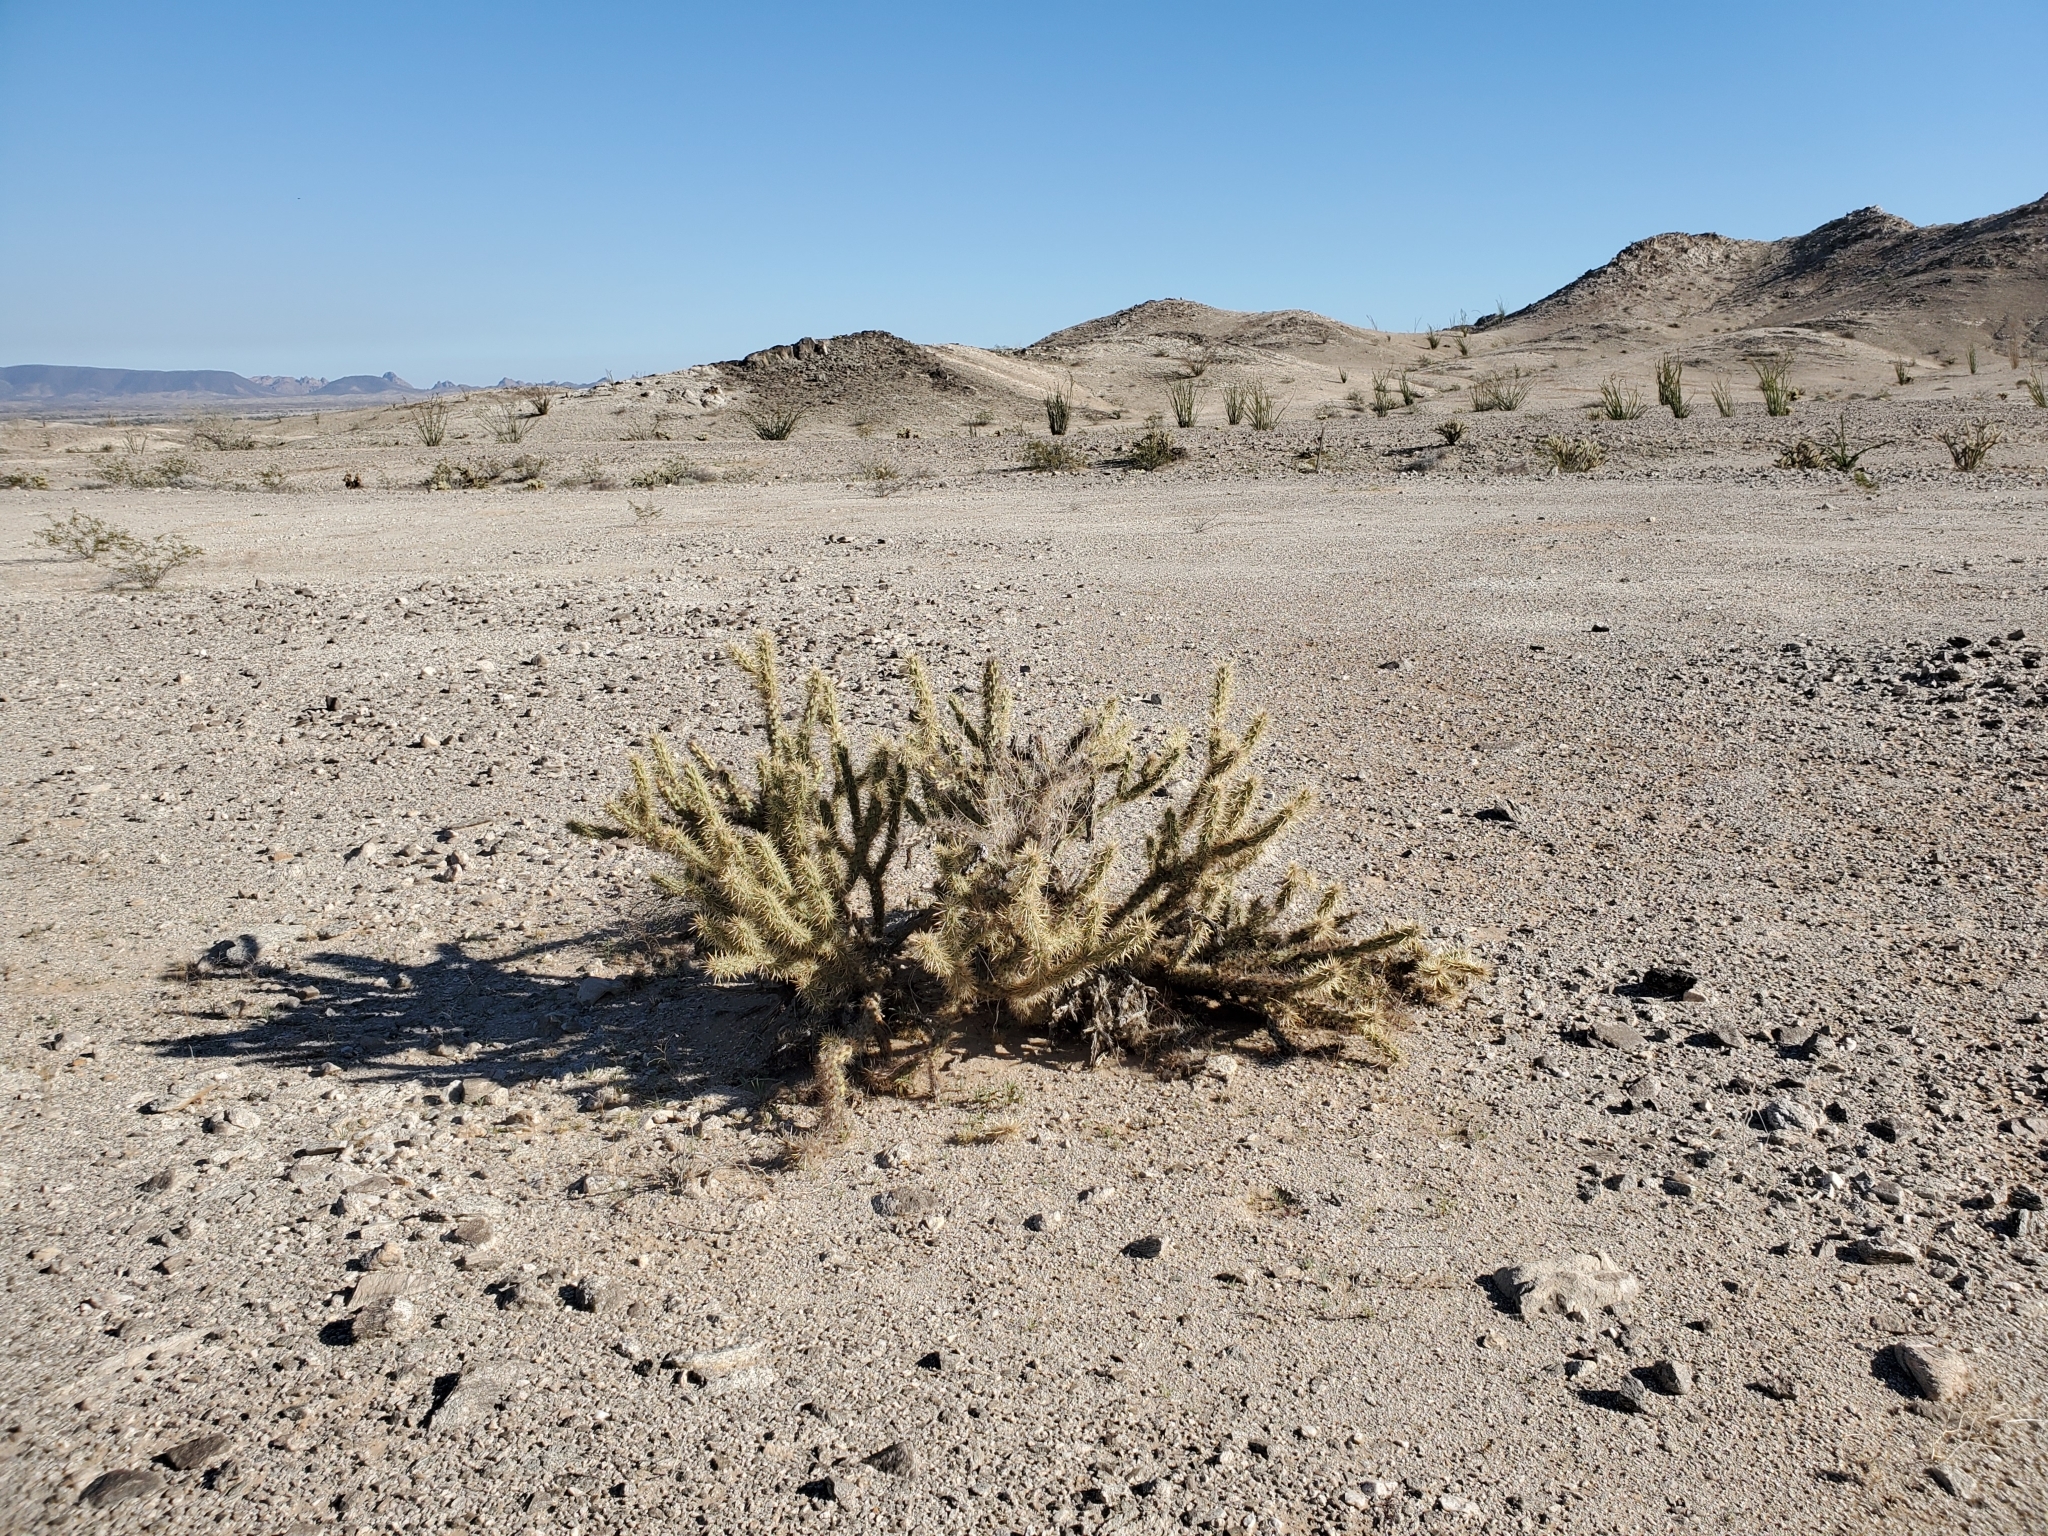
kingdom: Plantae
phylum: Tracheophyta
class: Magnoliopsida
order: Caryophyllales
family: Cactaceae
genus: Cylindropuntia
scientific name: Cylindropuntia acanthocarpa
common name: Buckhorn cholla
